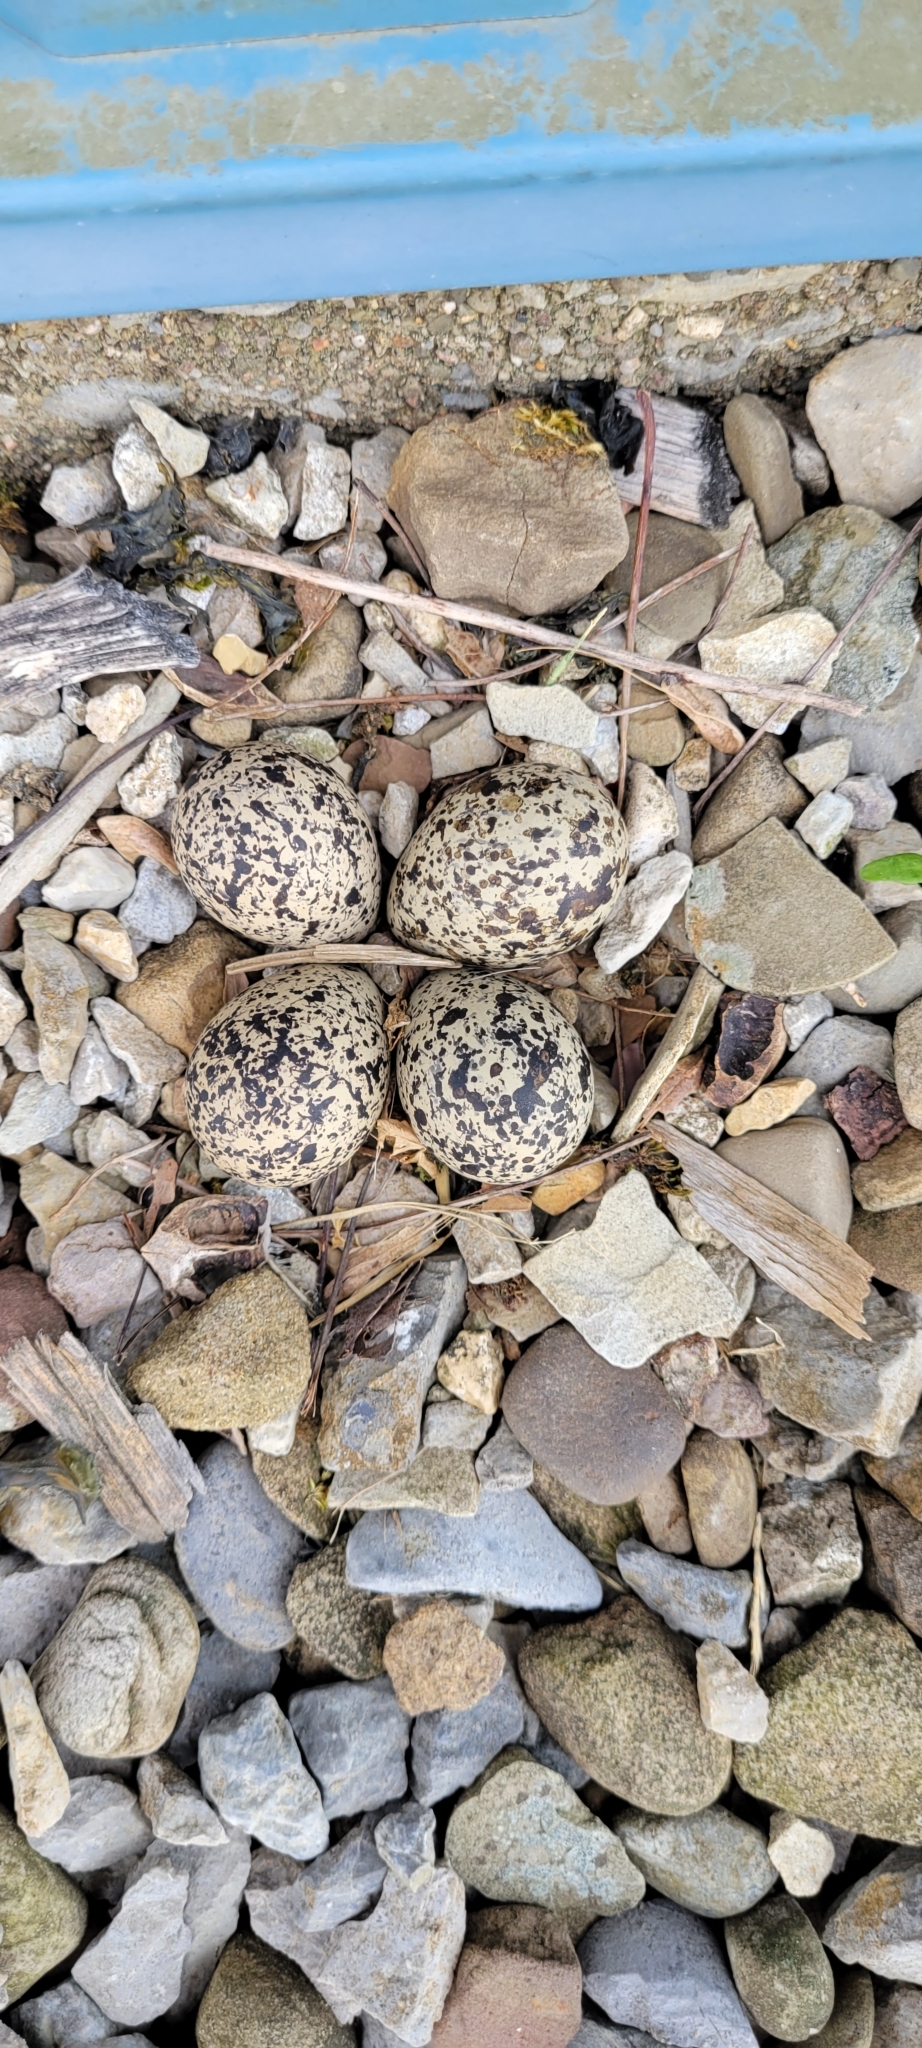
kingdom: Animalia
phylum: Chordata
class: Aves
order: Charadriiformes
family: Charadriidae
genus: Charadrius
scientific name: Charadrius vociferus
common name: Killdeer
